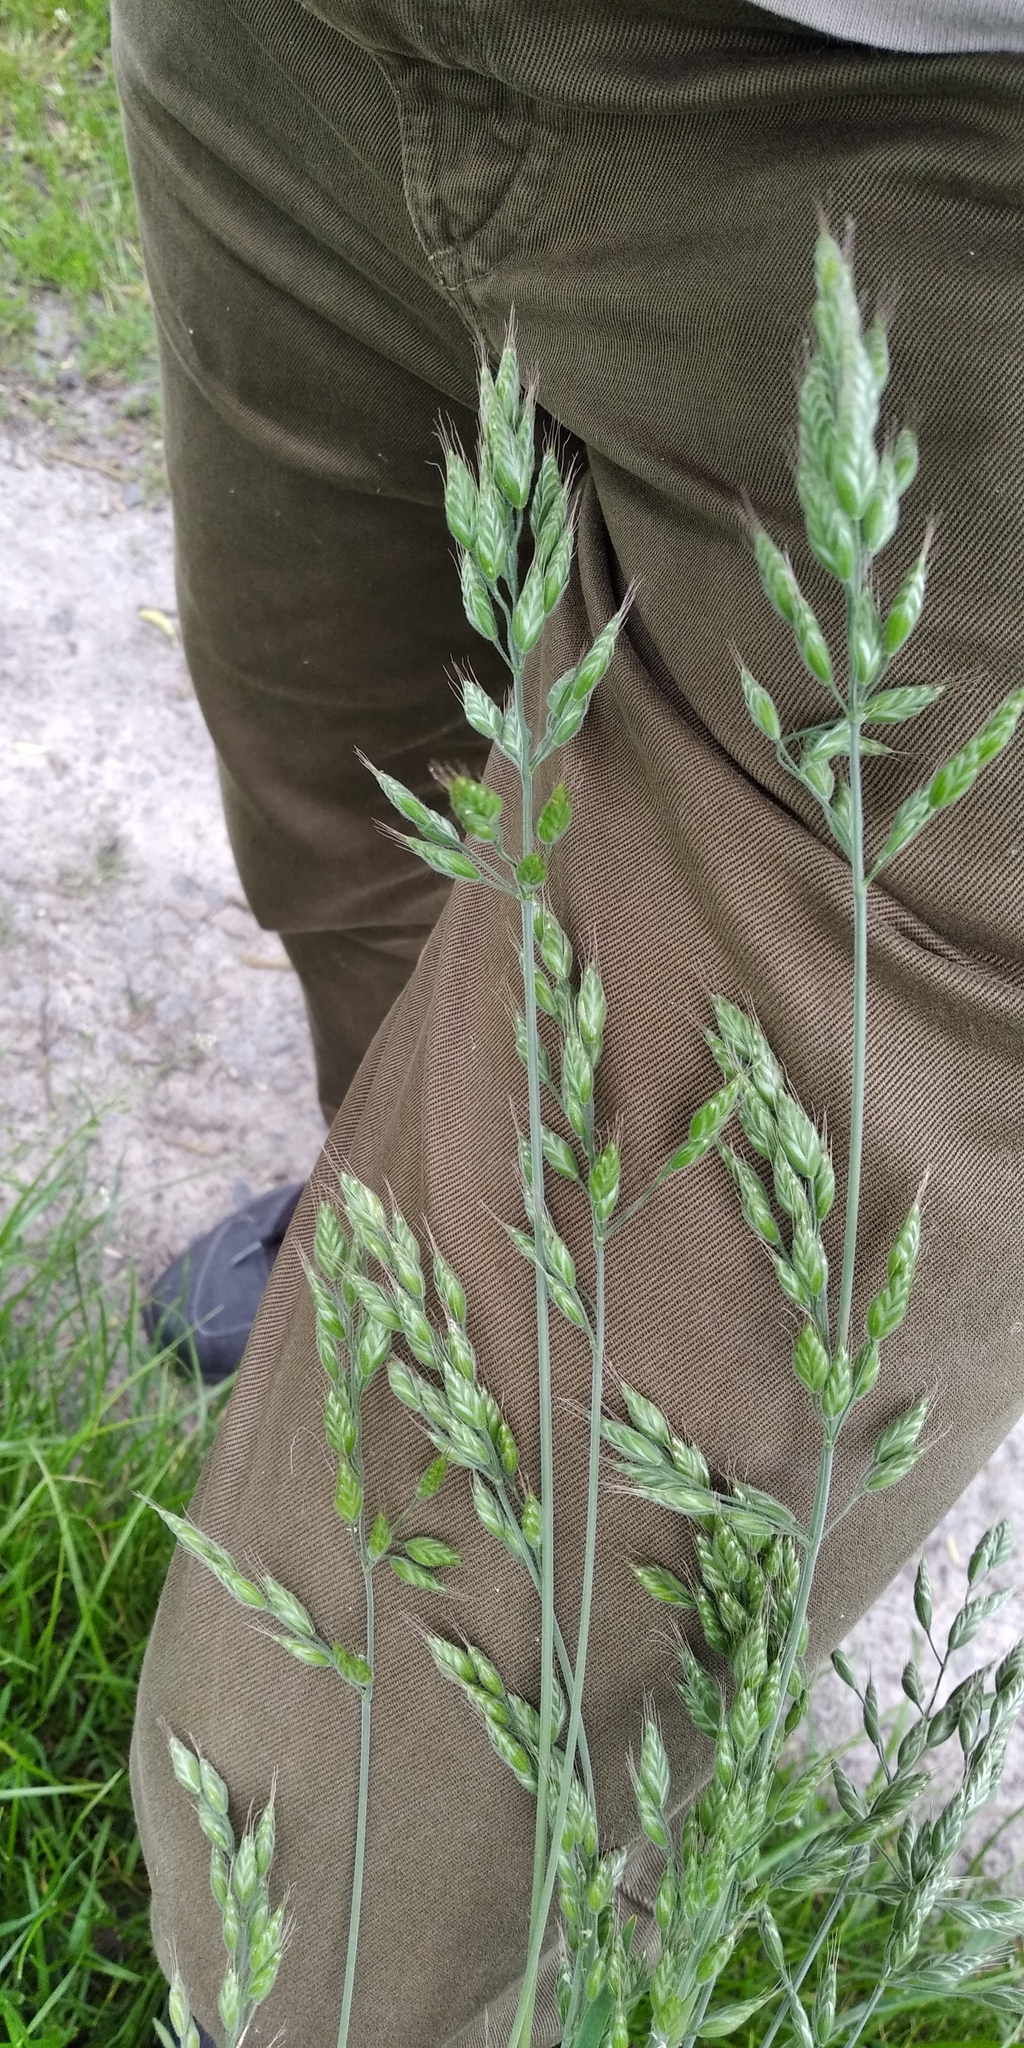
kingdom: Plantae
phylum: Tracheophyta
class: Liliopsida
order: Poales
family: Poaceae
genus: Bromus
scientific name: Bromus hordeaceus
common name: Soft brome
